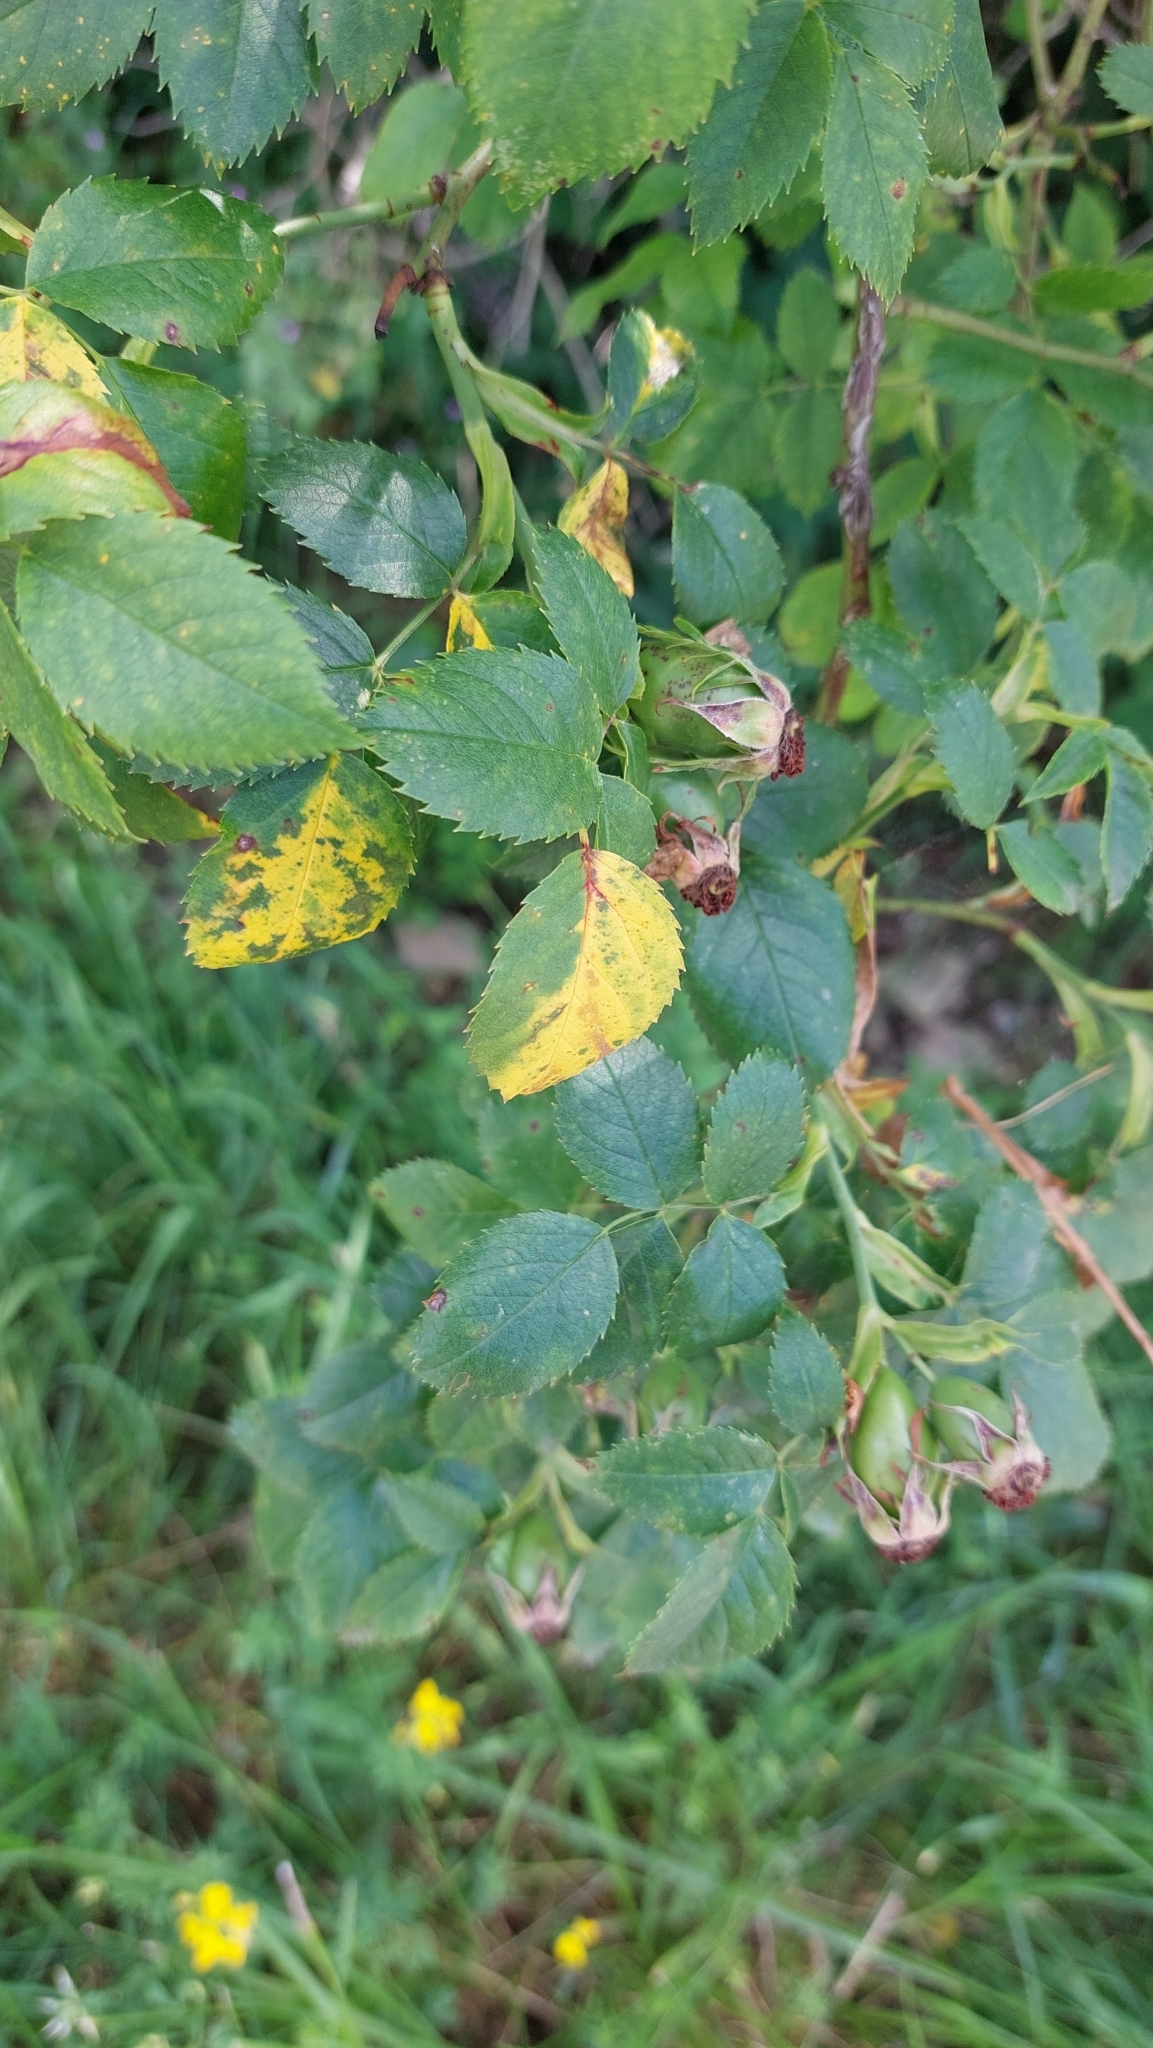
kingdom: Plantae
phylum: Tracheophyta
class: Magnoliopsida
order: Rosales
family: Rosaceae
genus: Rosa
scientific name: Rosa
